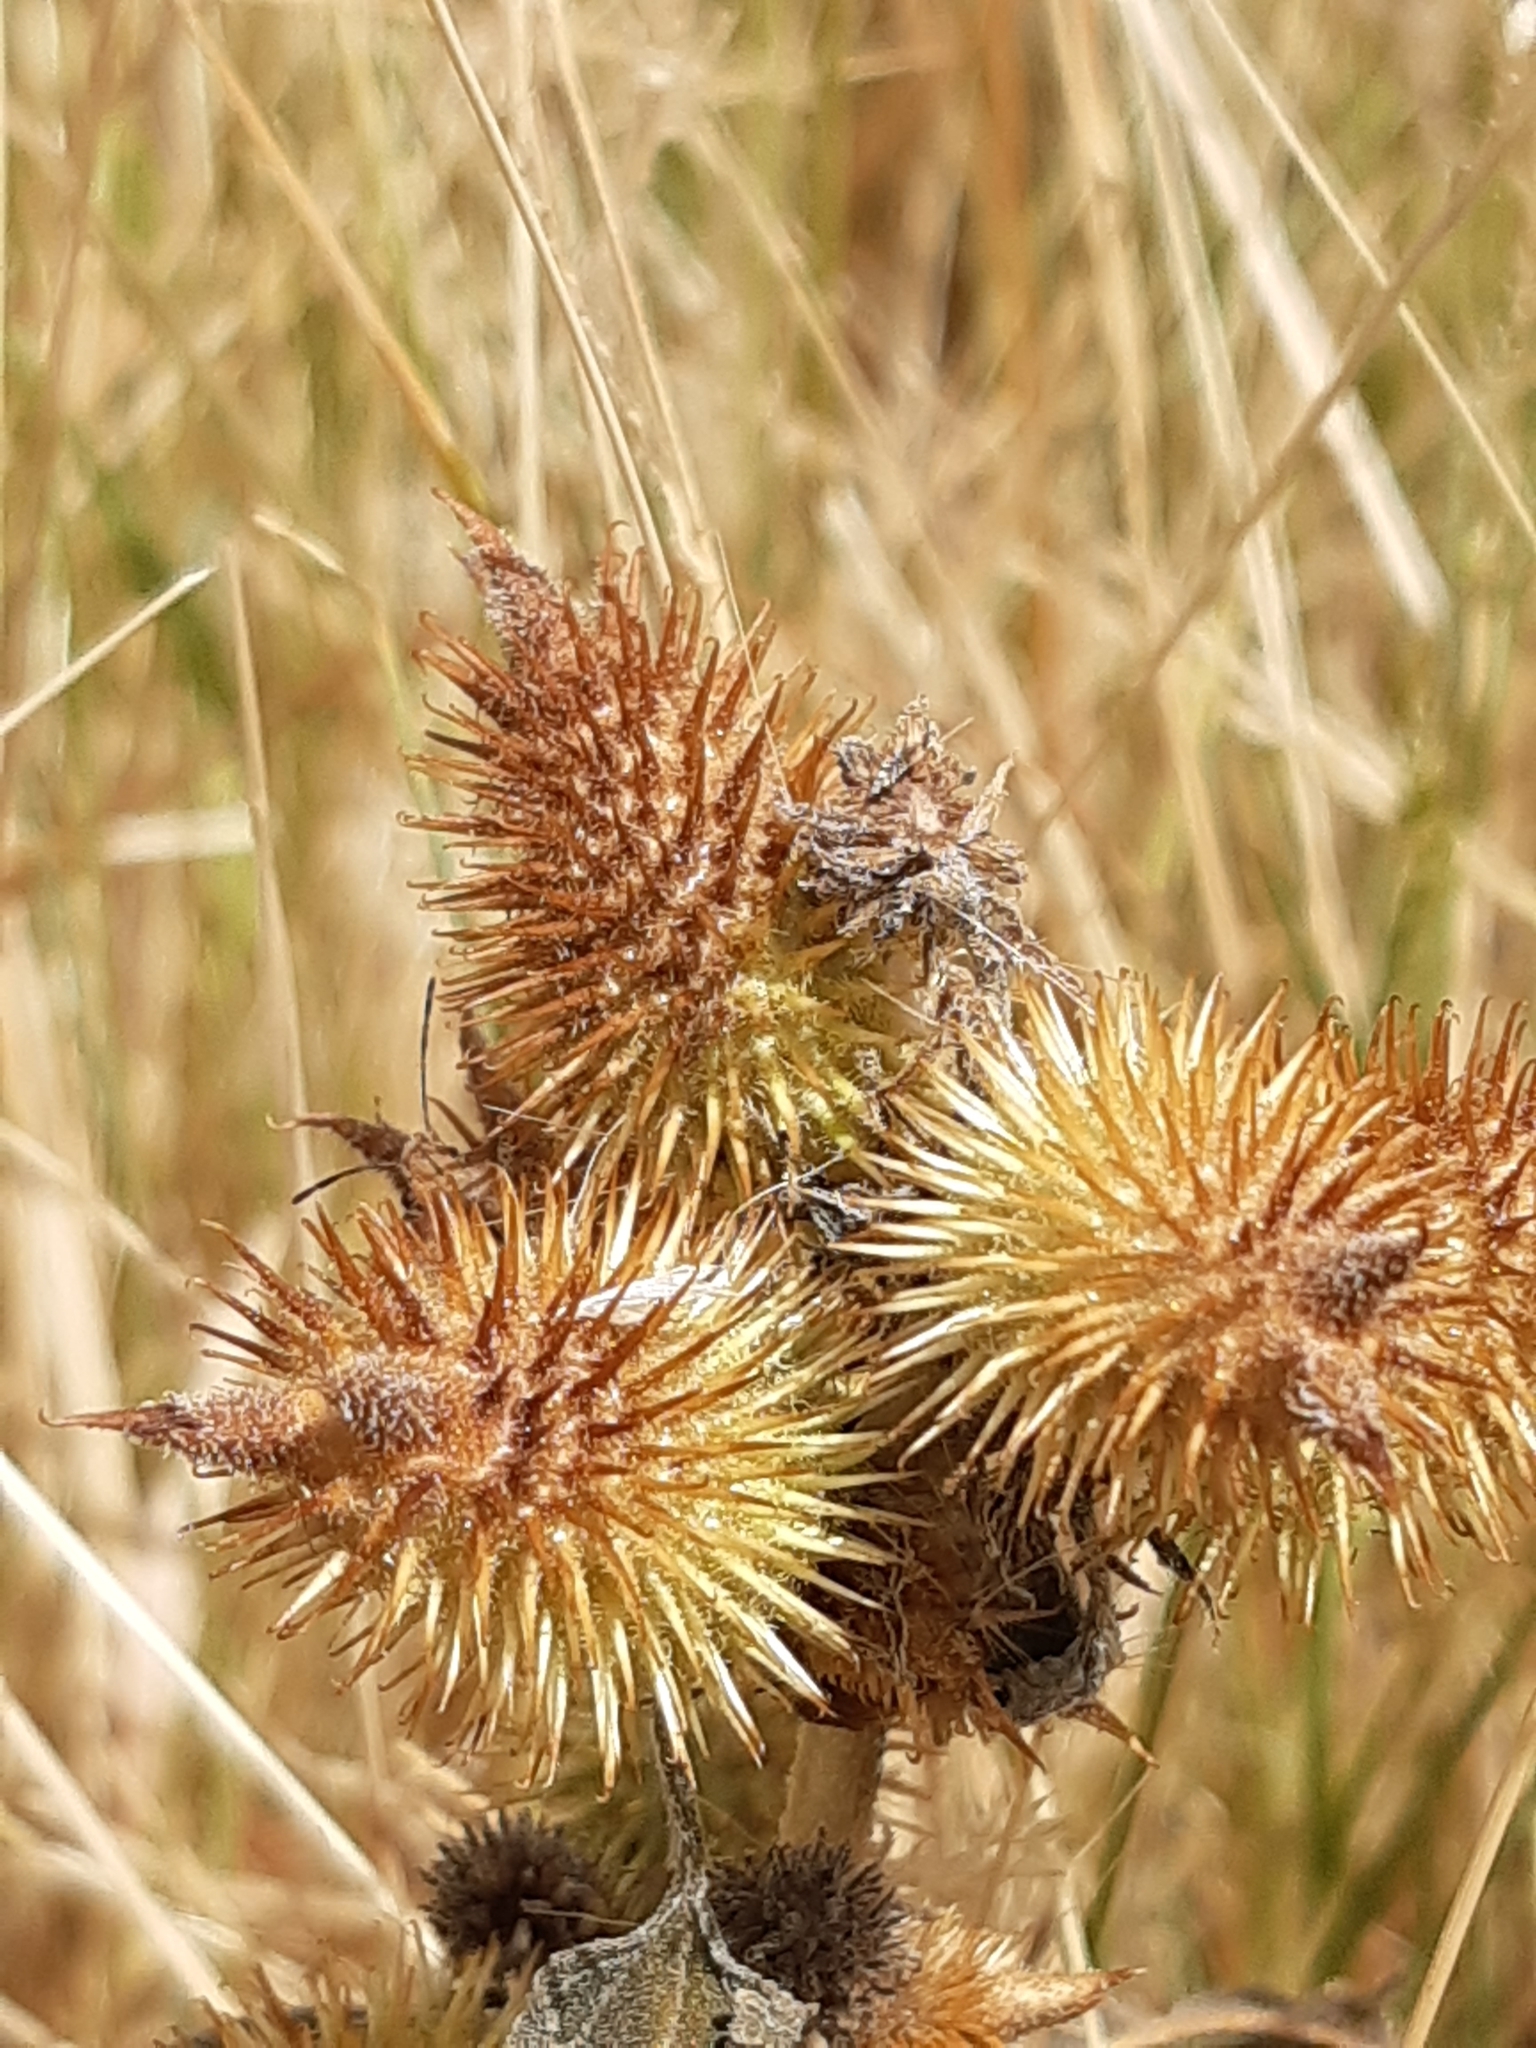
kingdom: Plantae
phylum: Tracheophyta
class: Magnoliopsida
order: Asterales
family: Asteraceae
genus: Xanthium
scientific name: Xanthium strumarium
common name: Rough cocklebur
